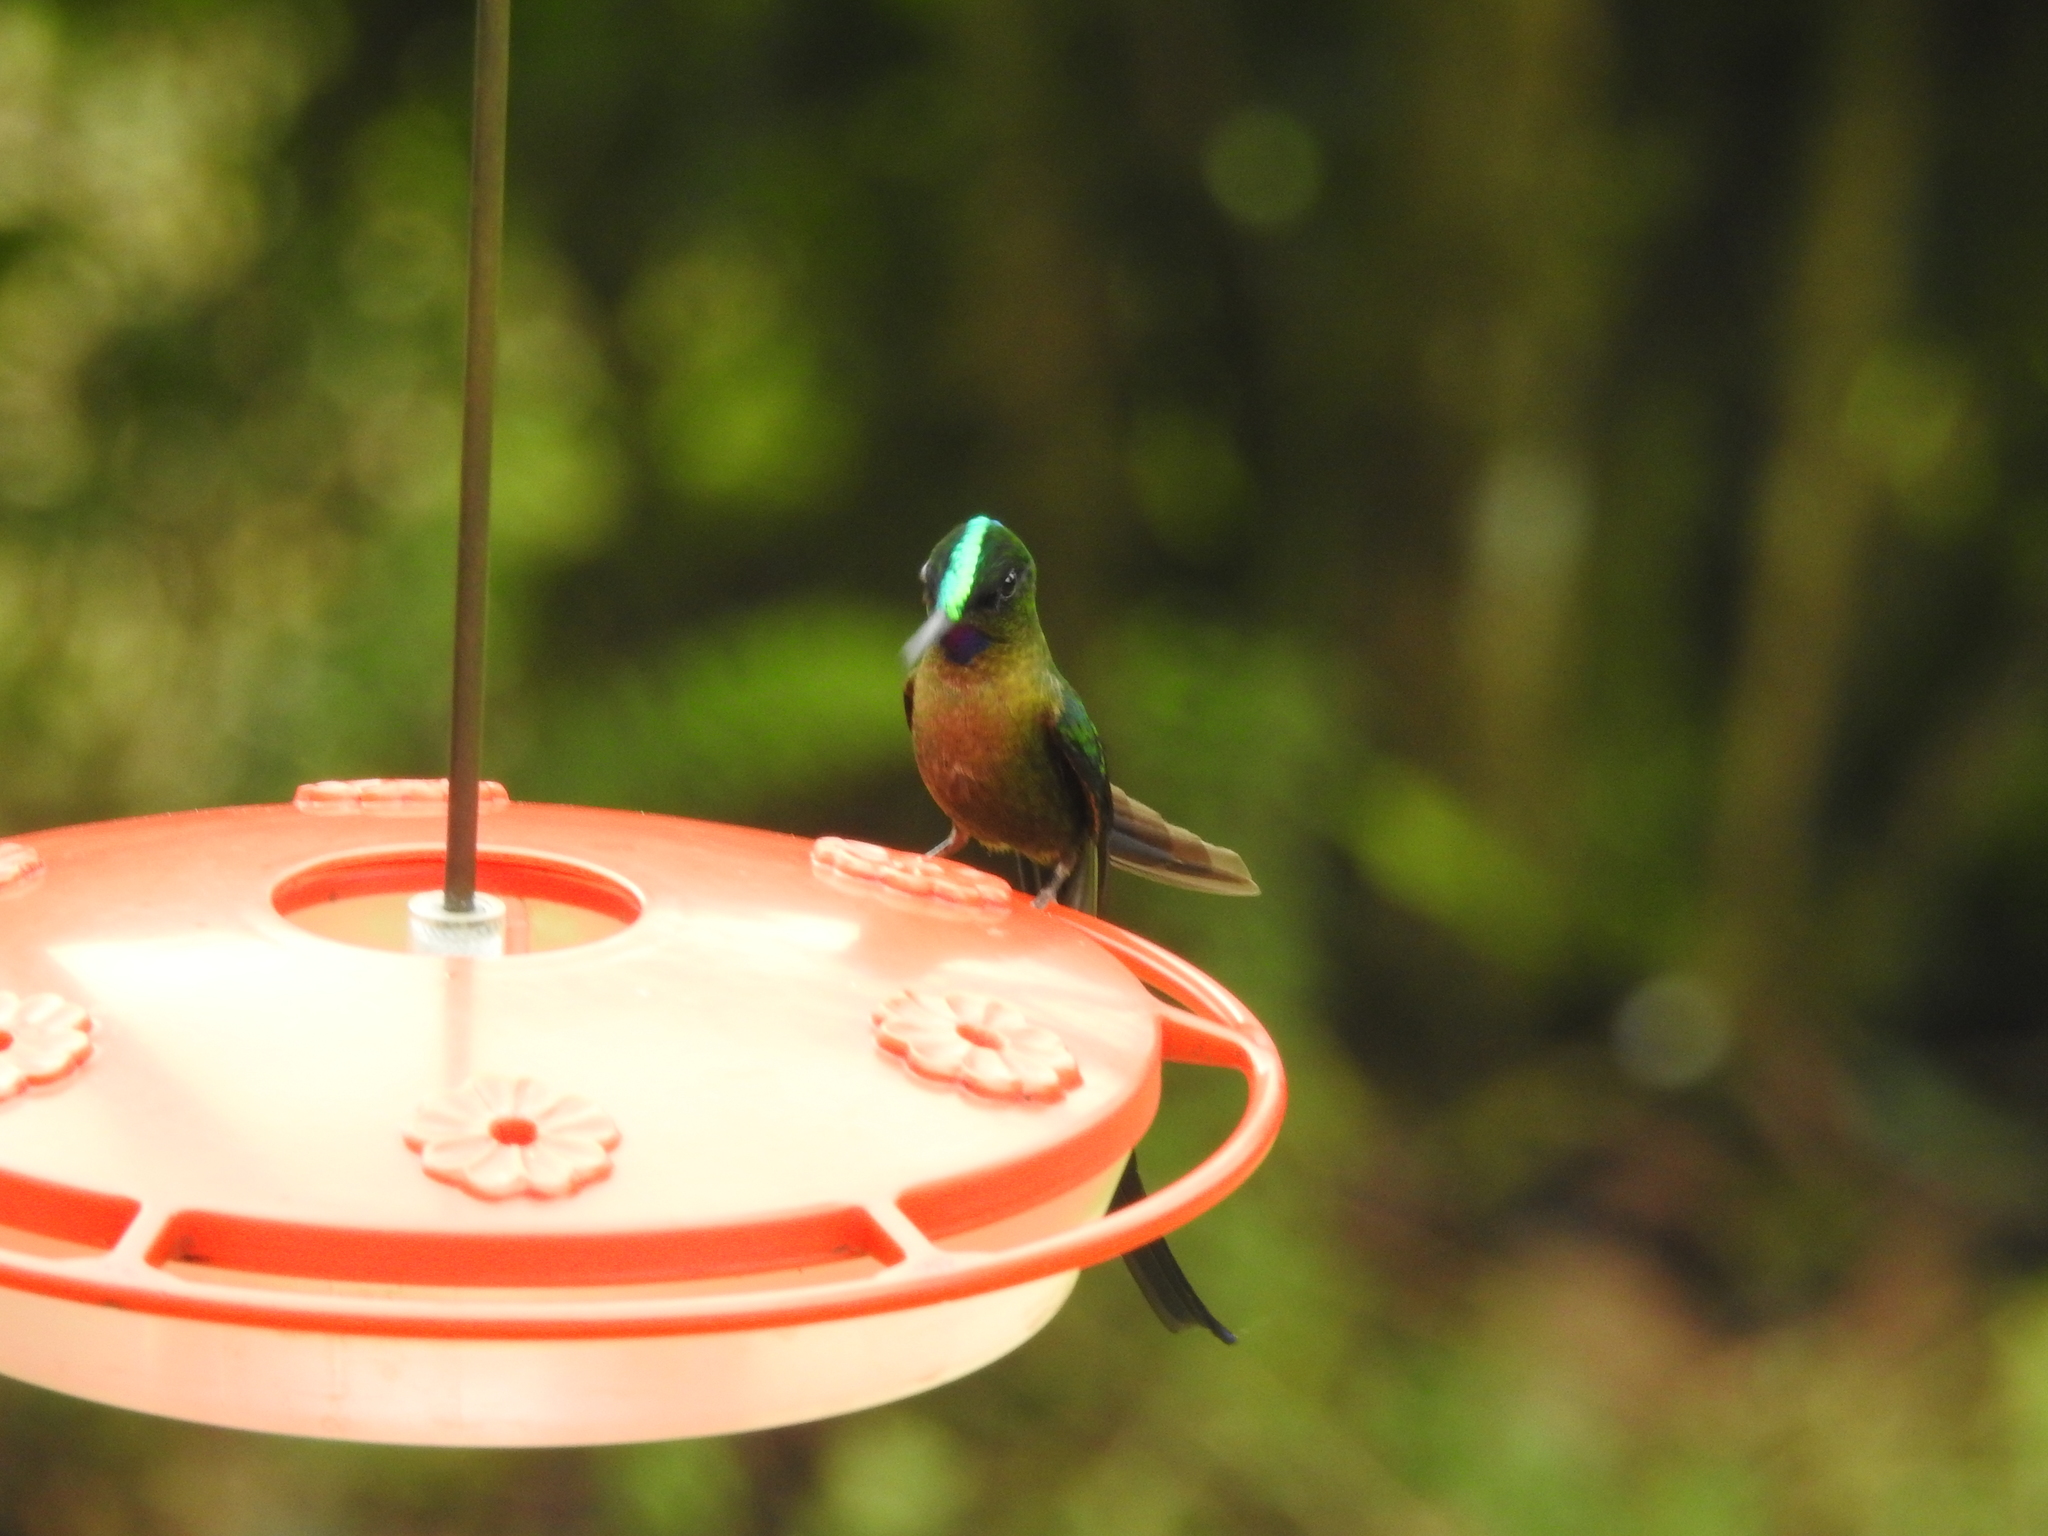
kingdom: Animalia
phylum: Chordata
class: Aves
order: Apodiformes
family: Trochilidae
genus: Aglaiocercus
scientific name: Aglaiocercus coelestis
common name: Violet-tailed sylph
